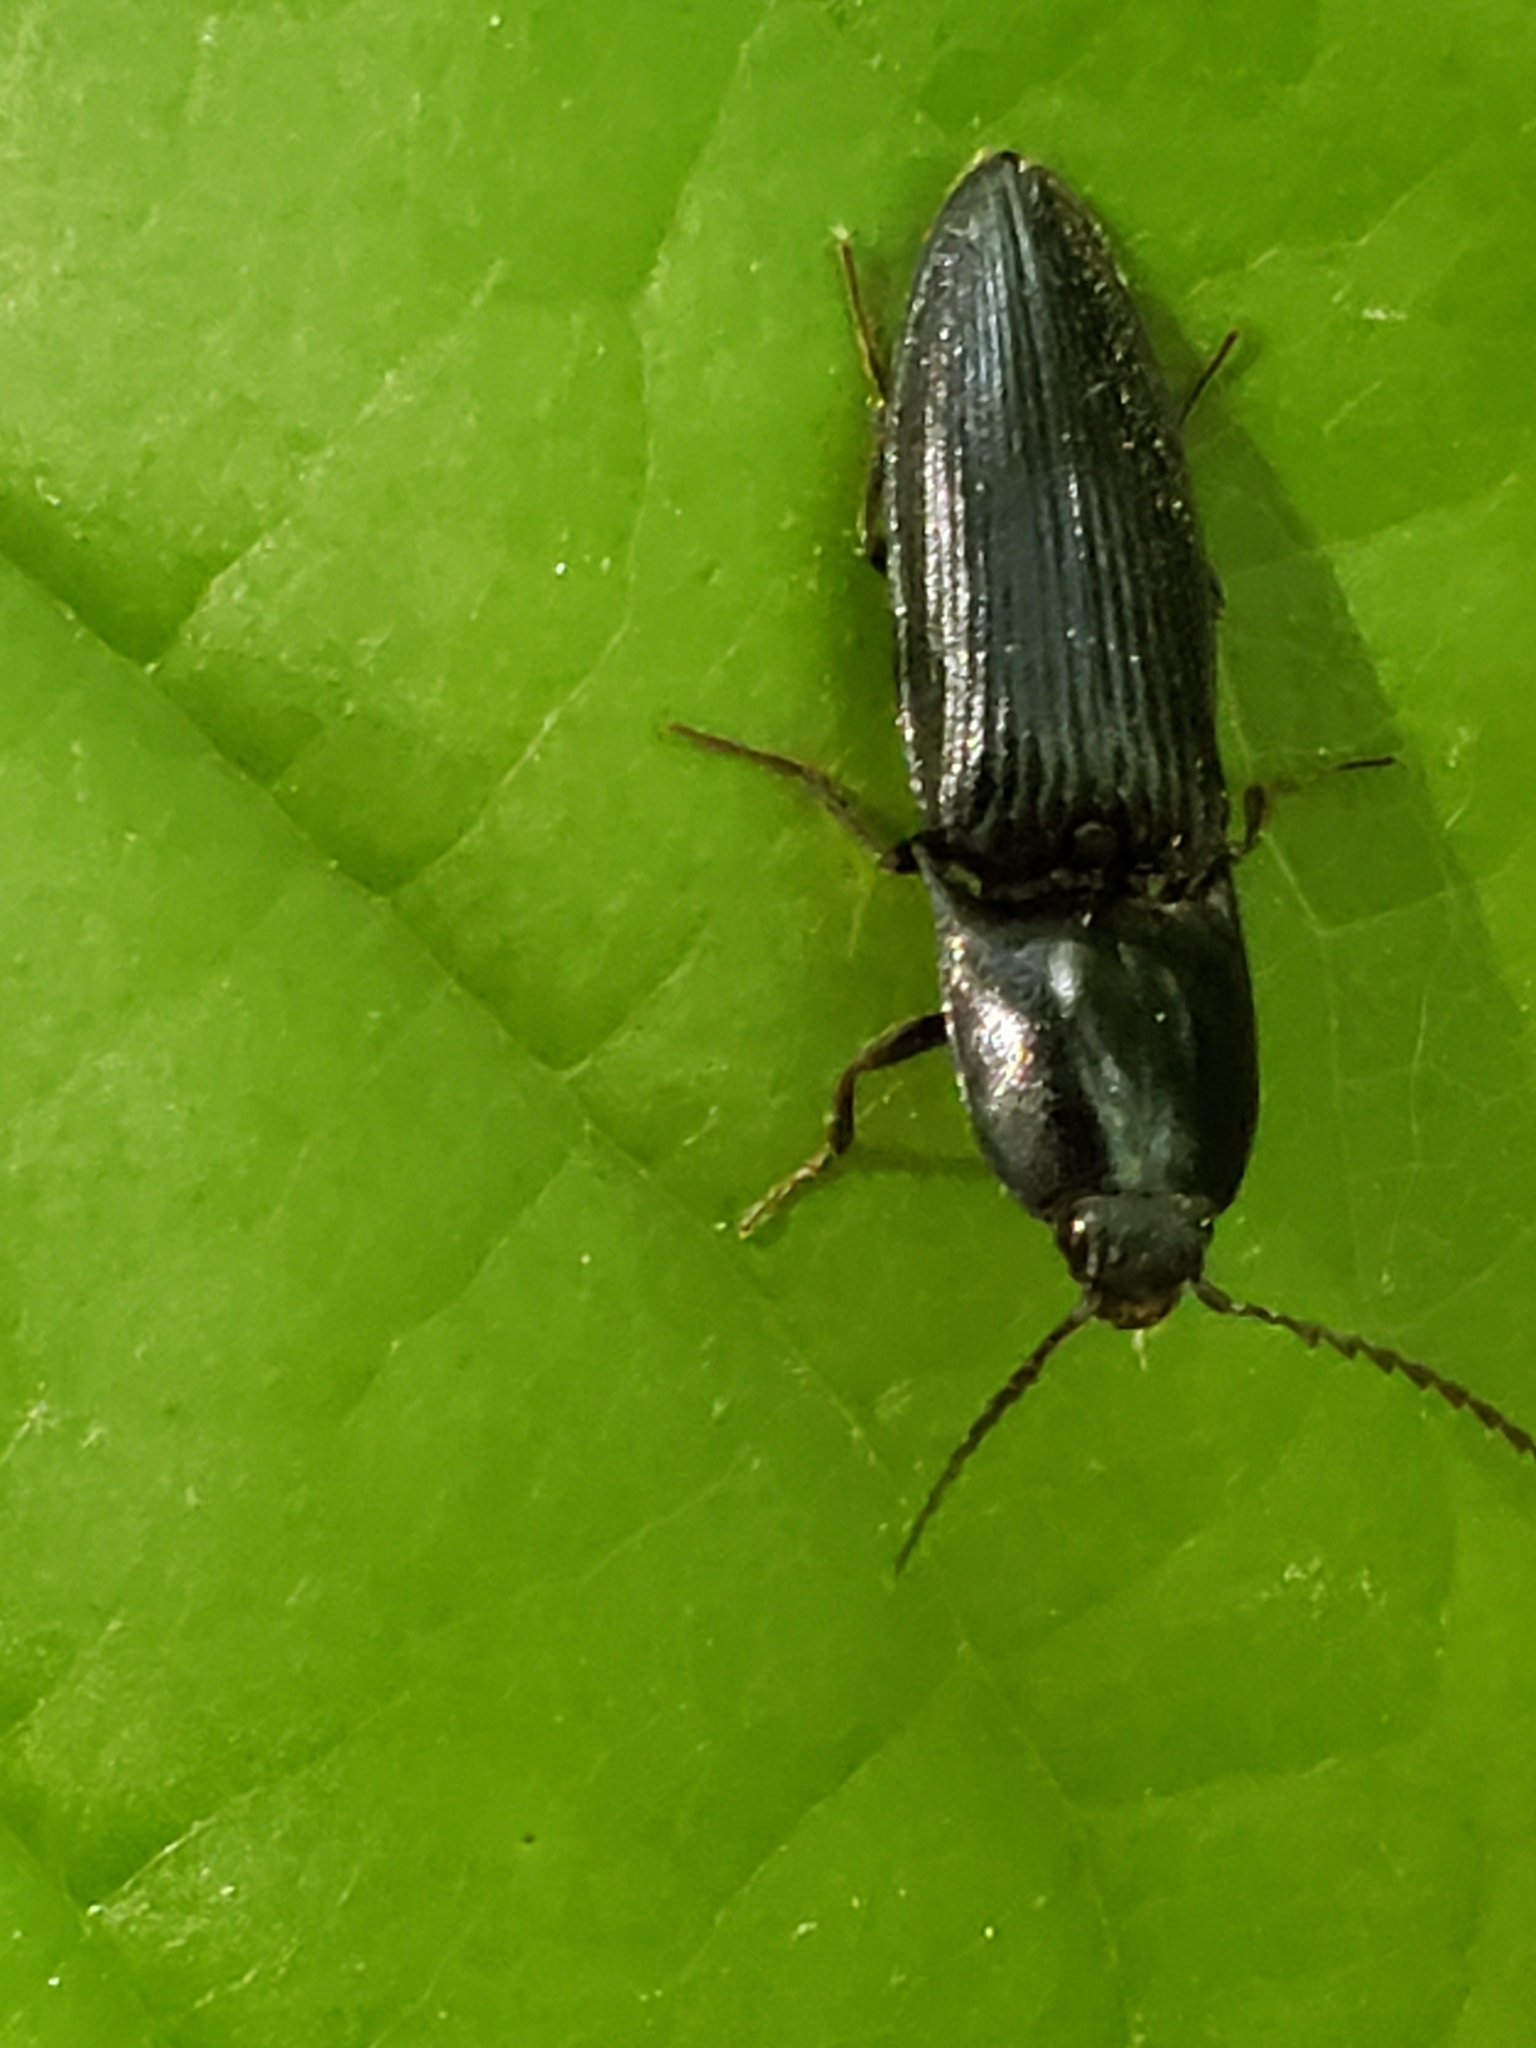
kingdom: Animalia
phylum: Arthropoda
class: Insecta
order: Coleoptera
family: Elateridae
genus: Neopristilophus
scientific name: Neopristilophus
